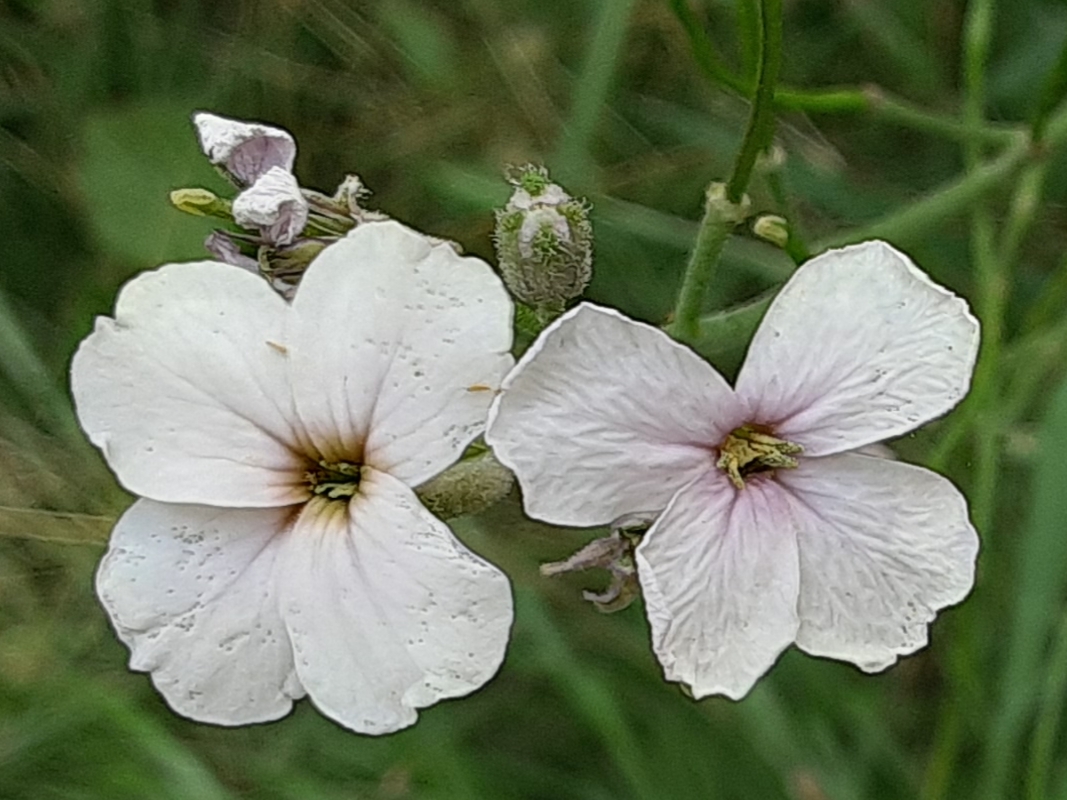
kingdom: Plantae
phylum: Tracheophyta
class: Magnoliopsida
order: Brassicales
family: Brassicaceae
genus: Hesperis
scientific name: Hesperis matronalis
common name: Dame's-violet
